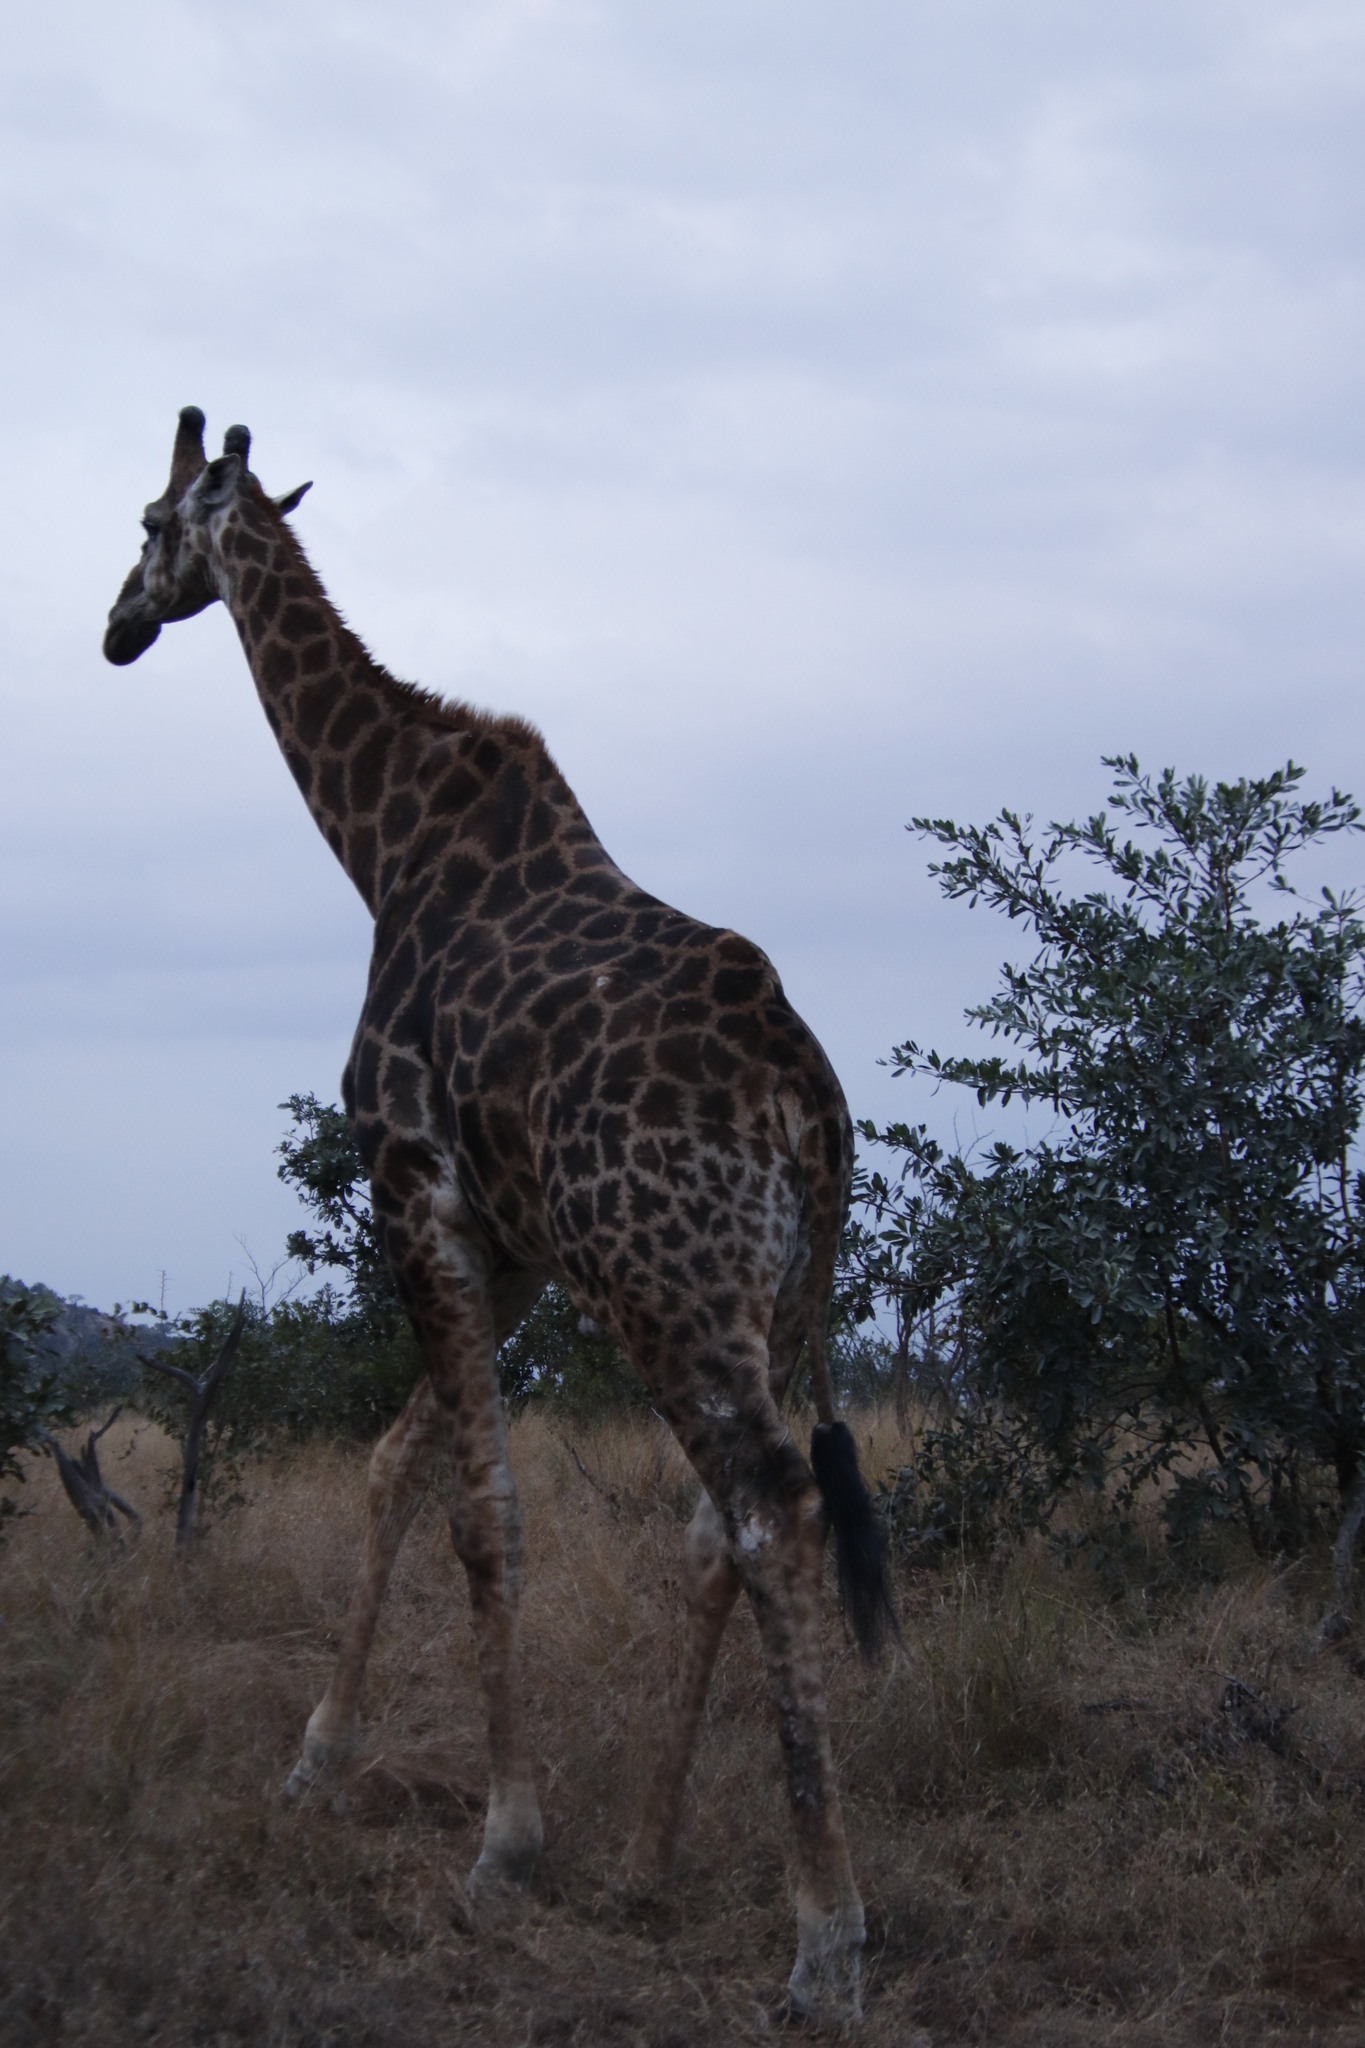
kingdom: Animalia
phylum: Chordata
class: Mammalia
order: Artiodactyla
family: Giraffidae
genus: Giraffa
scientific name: Giraffa giraffa
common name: Southern giraffe
